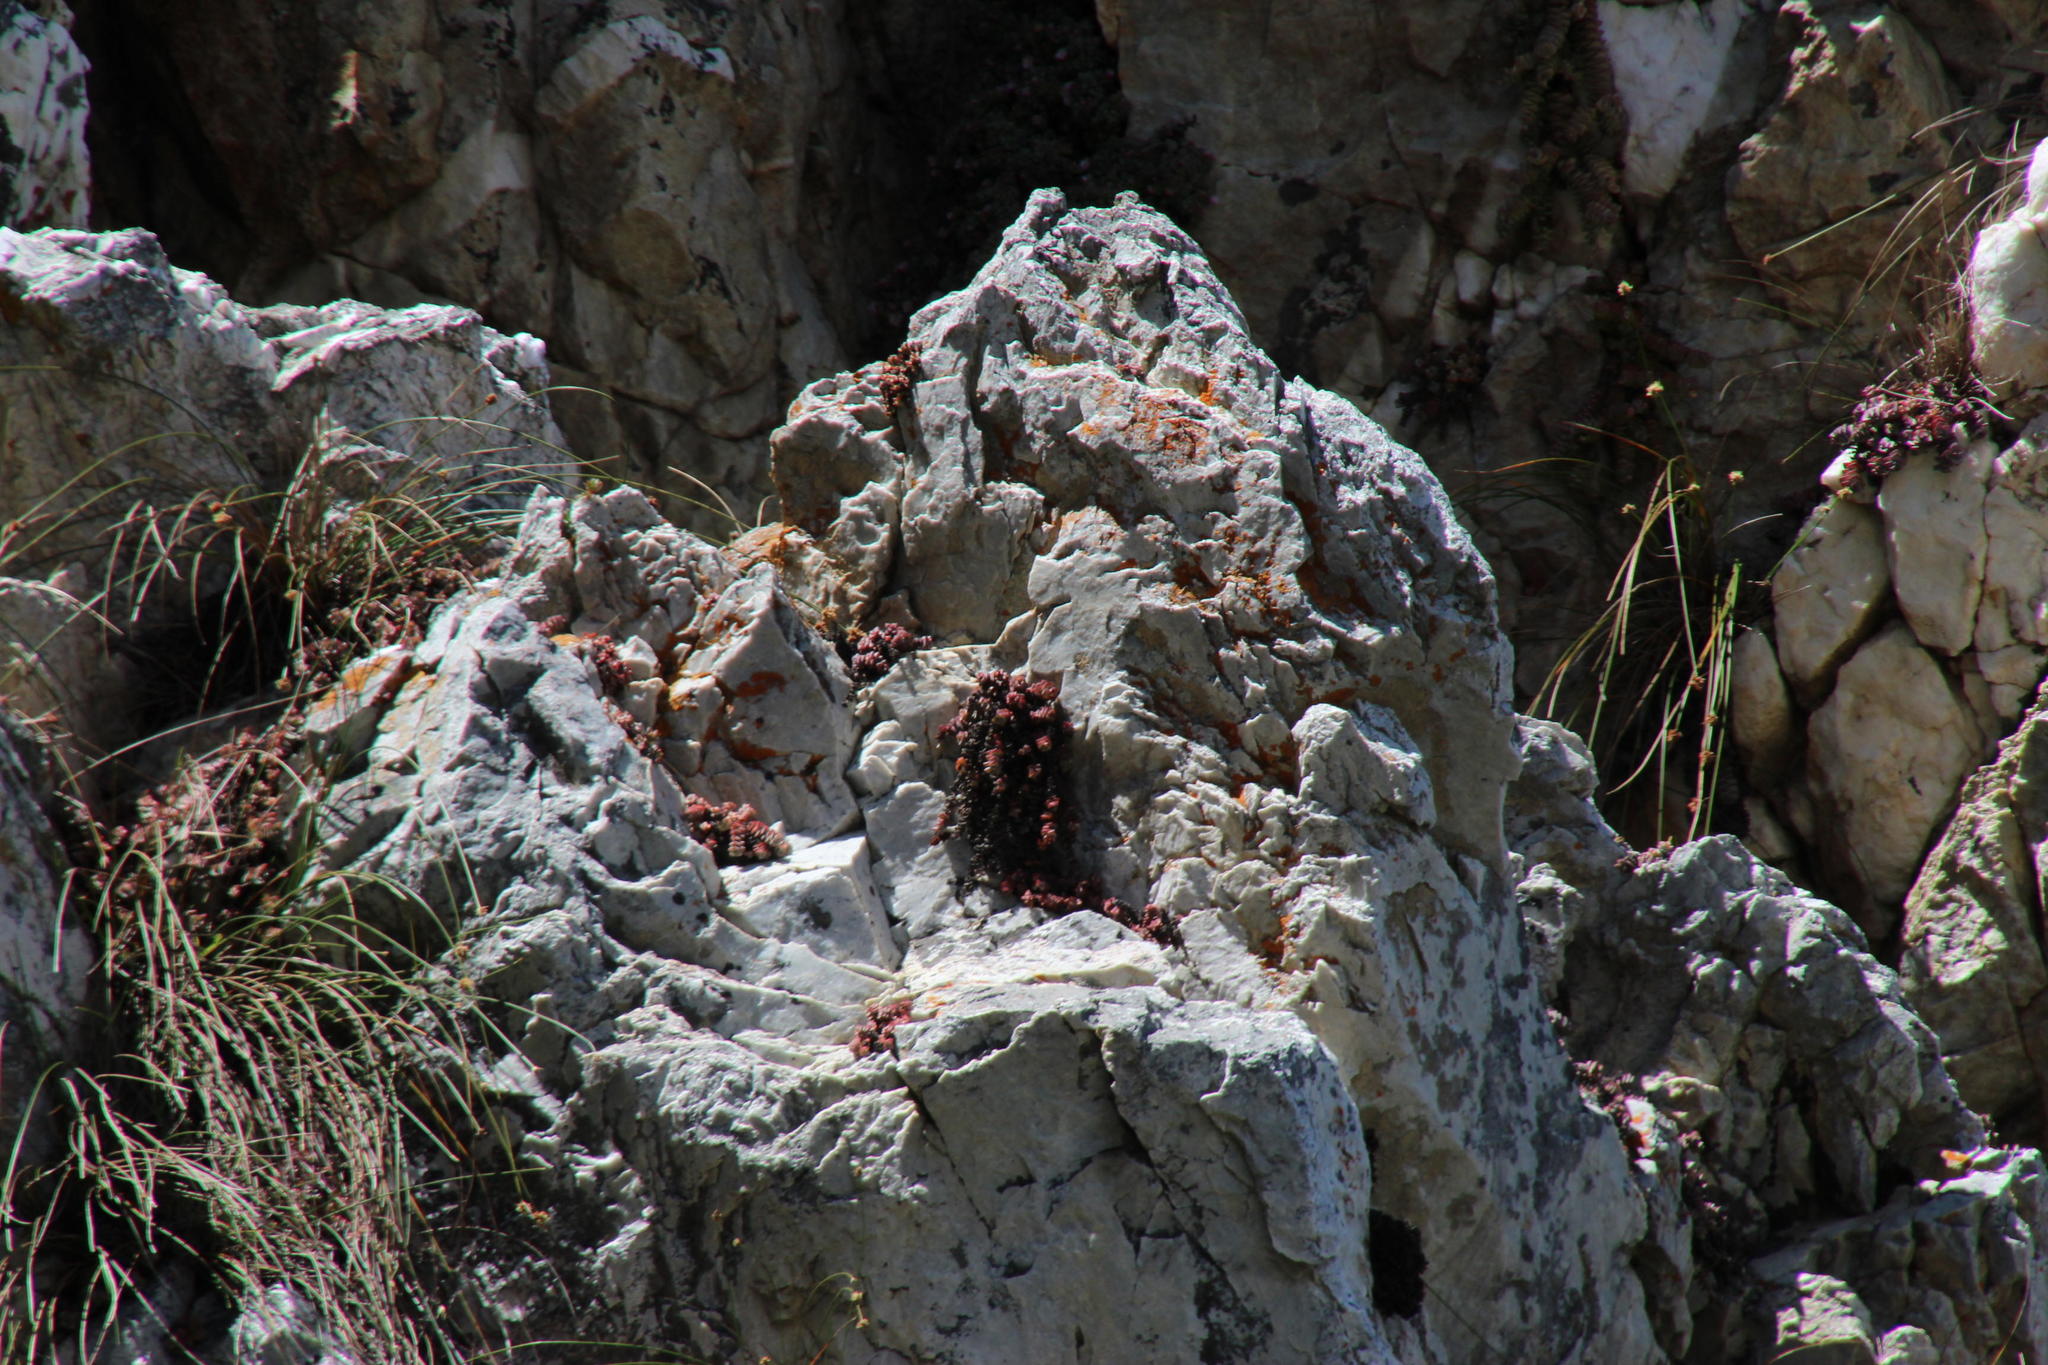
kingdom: Plantae
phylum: Tracheophyta
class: Magnoliopsida
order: Saxifragales
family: Crassulaceae
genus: Crassula
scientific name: Crassula rupestris
